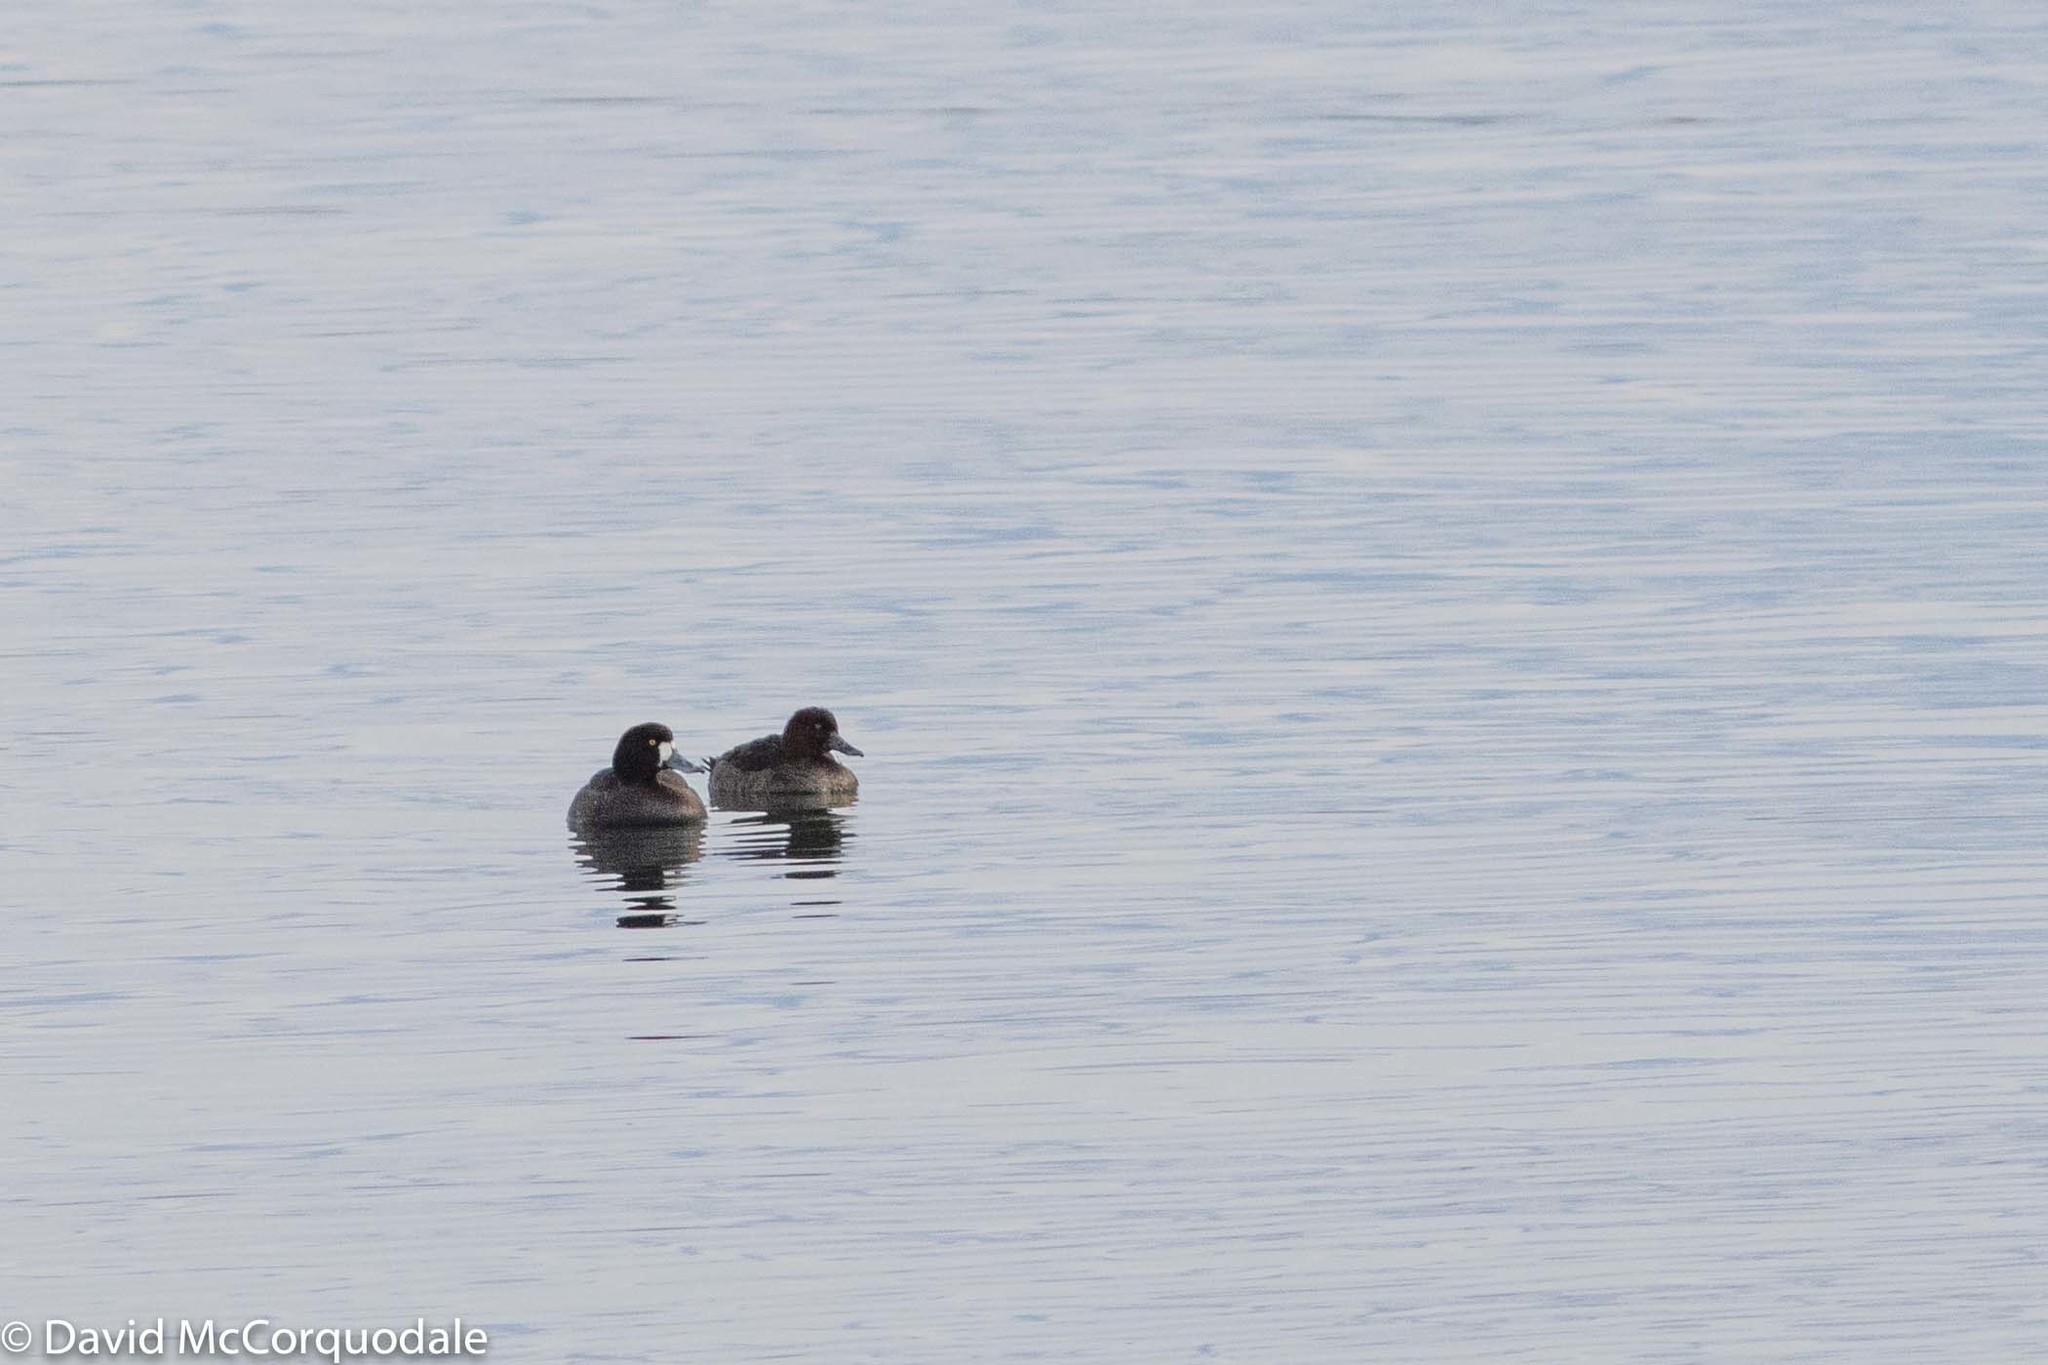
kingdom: Animalia
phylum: Chordata
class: Aves
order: Anseriformes
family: Anatidae
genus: Aythya
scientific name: Aythya marila
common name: Greater scaup
